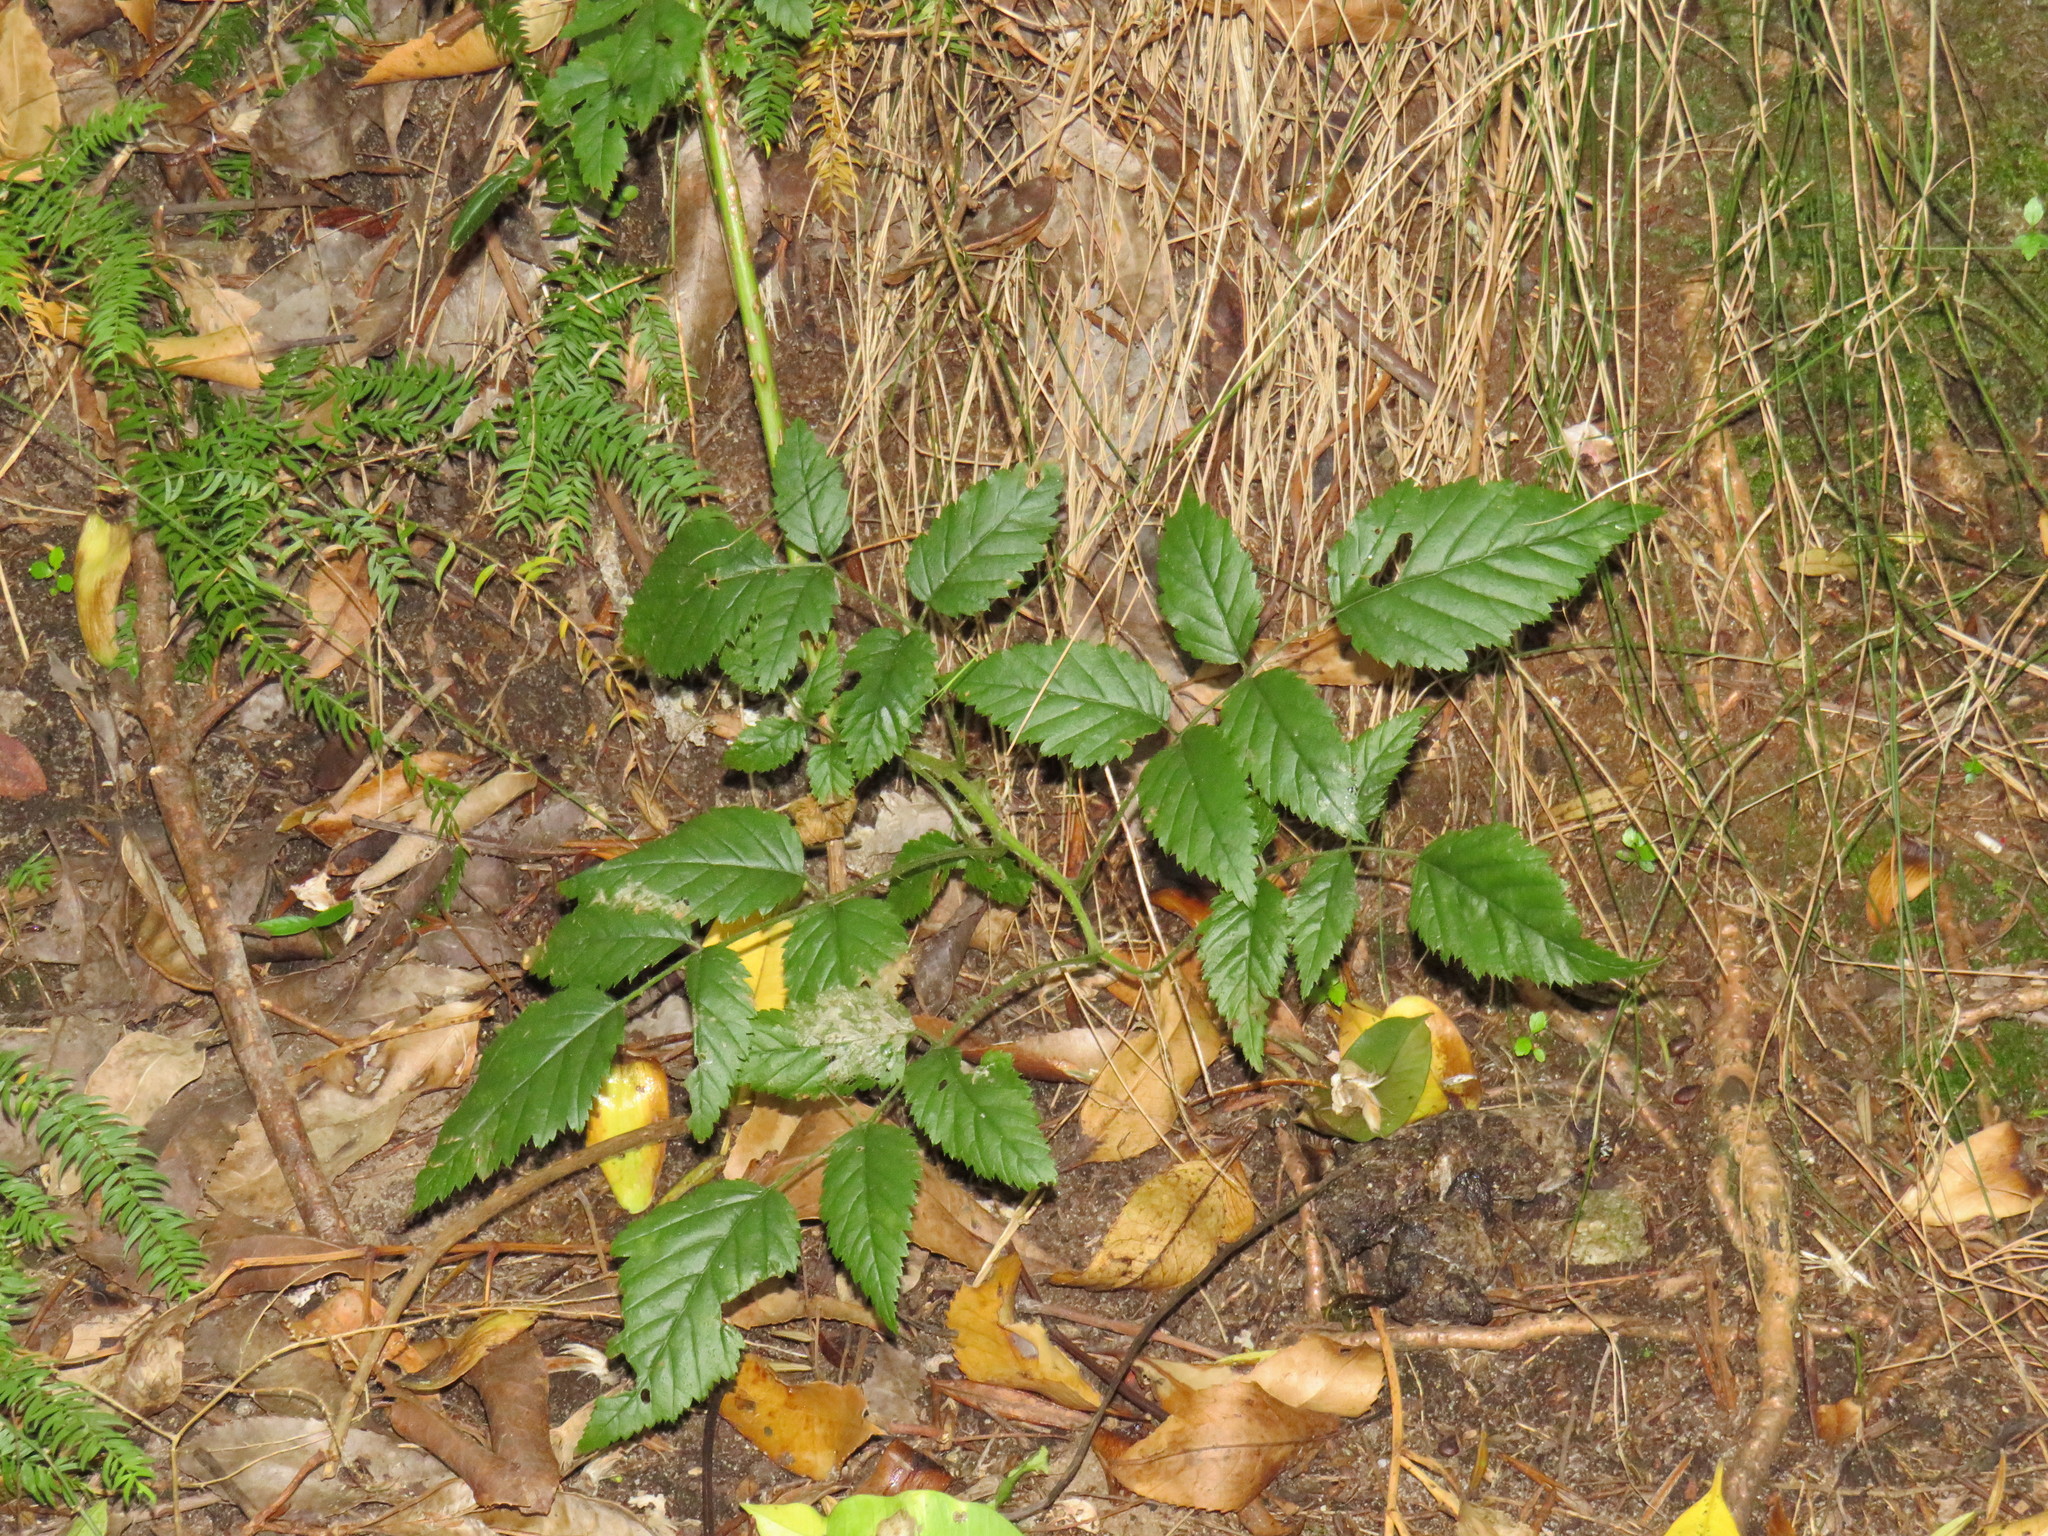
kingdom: Plantae
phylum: Tracheophyta
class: Magnoliopsida
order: Rosales
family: Rosaceae
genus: Rubus
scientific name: Rubus pinnatus
